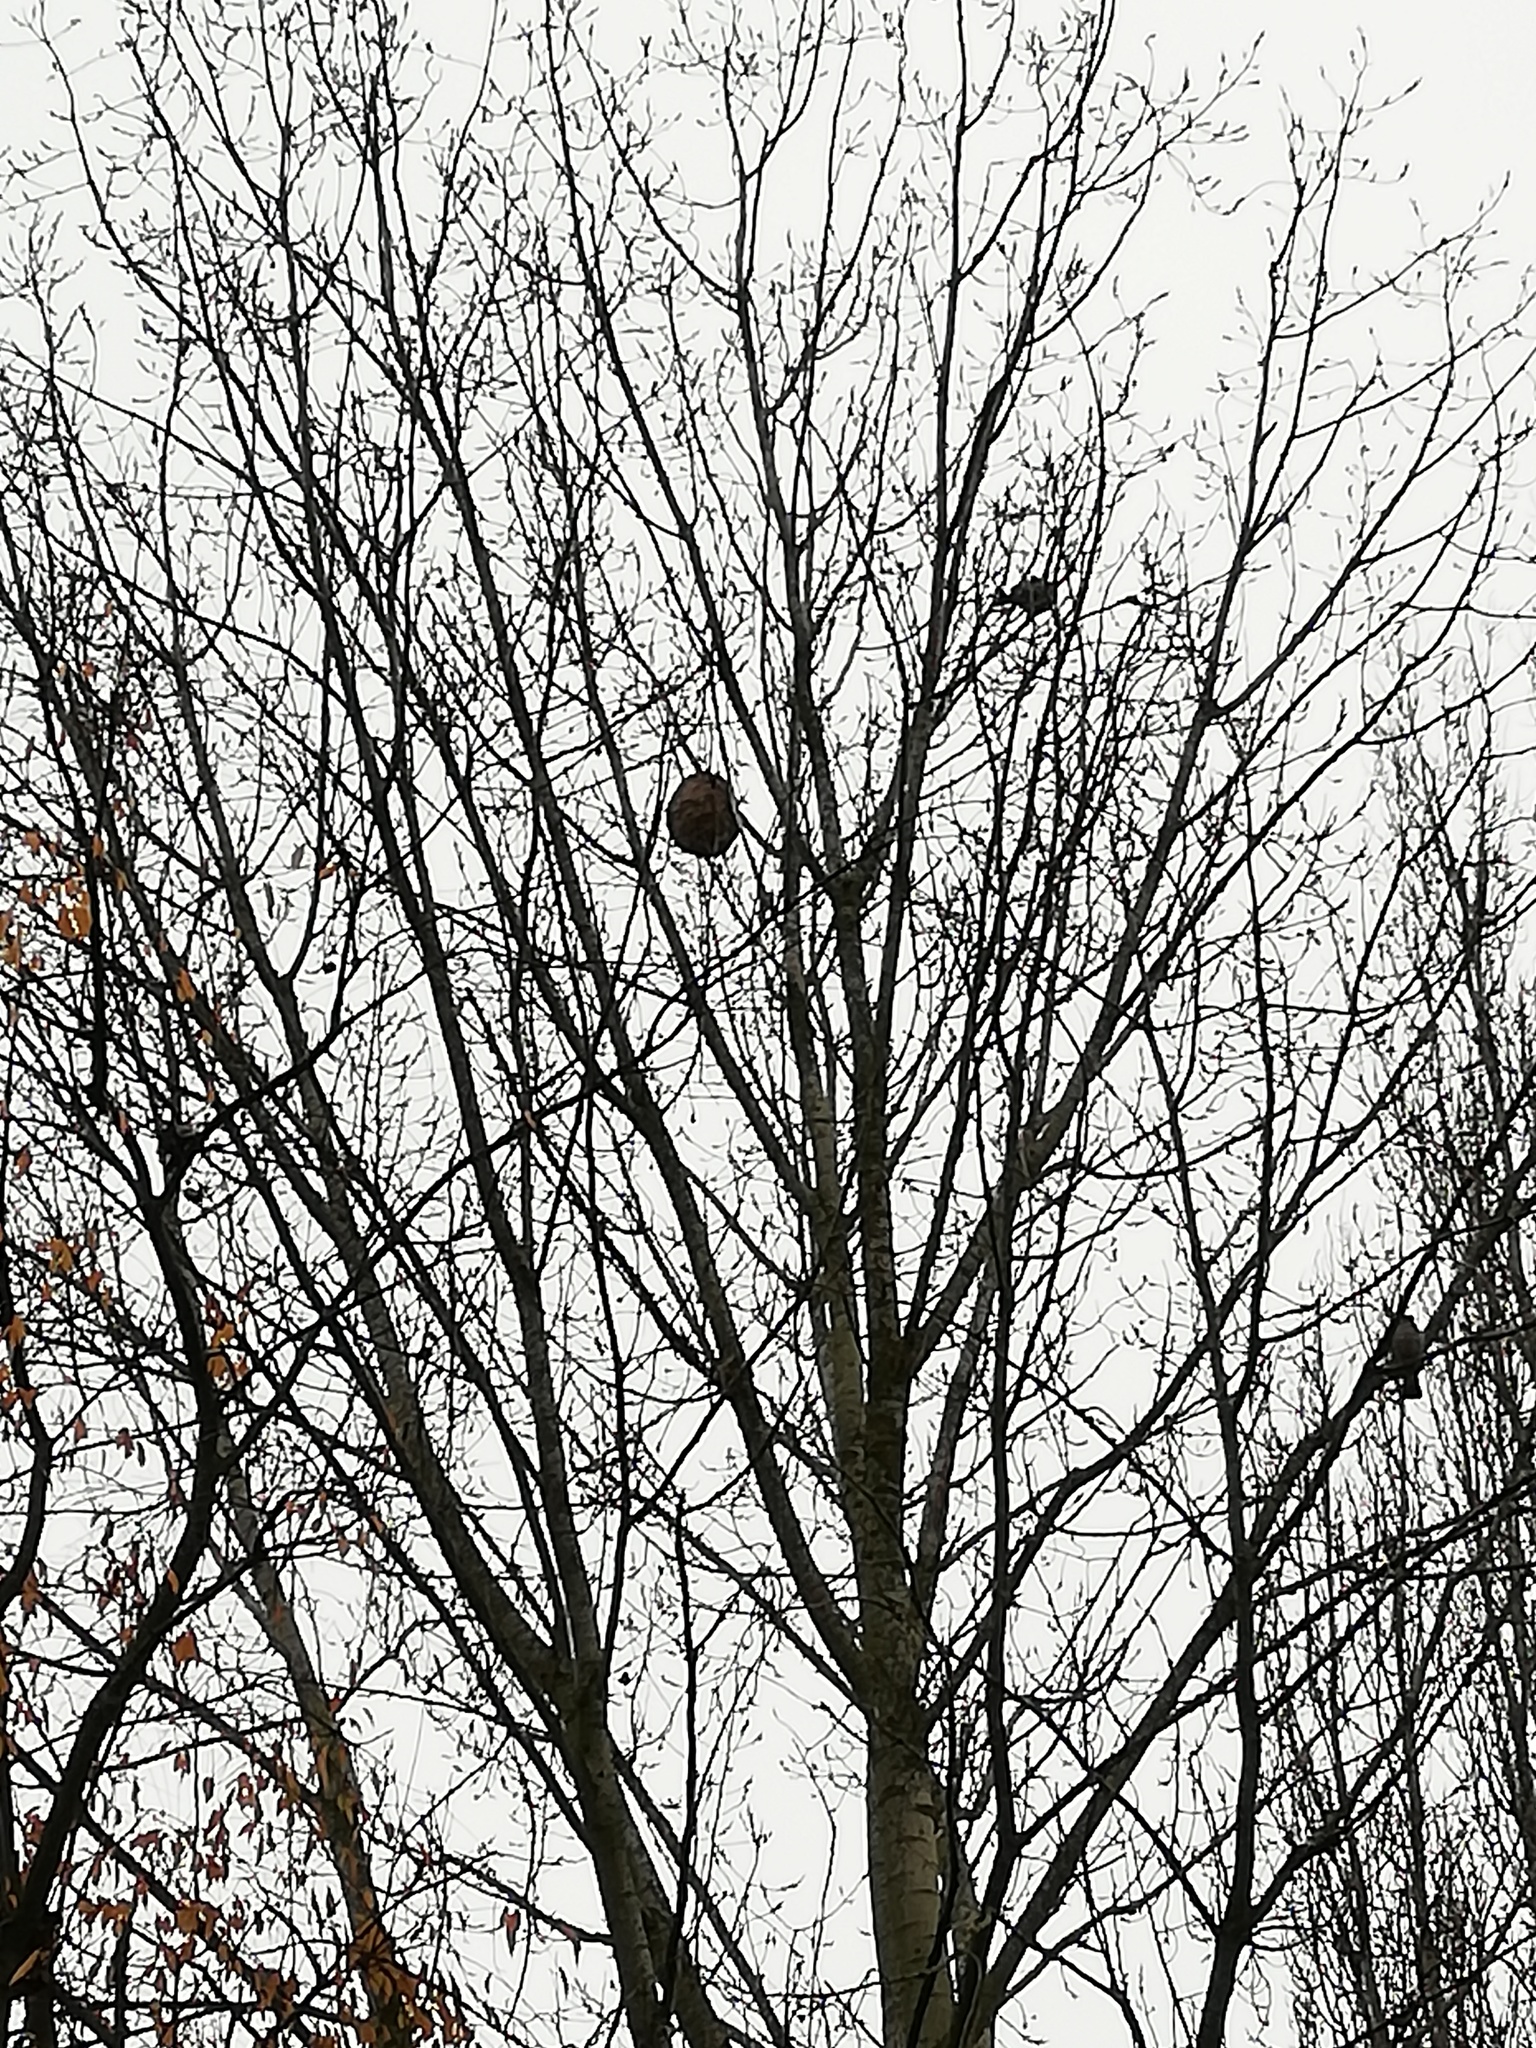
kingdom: Animalia
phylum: Arthropoda
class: Insecta
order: Hymenoptera
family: Vespidae
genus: Vespa
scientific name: Vespa velutina
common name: Asian hornet
